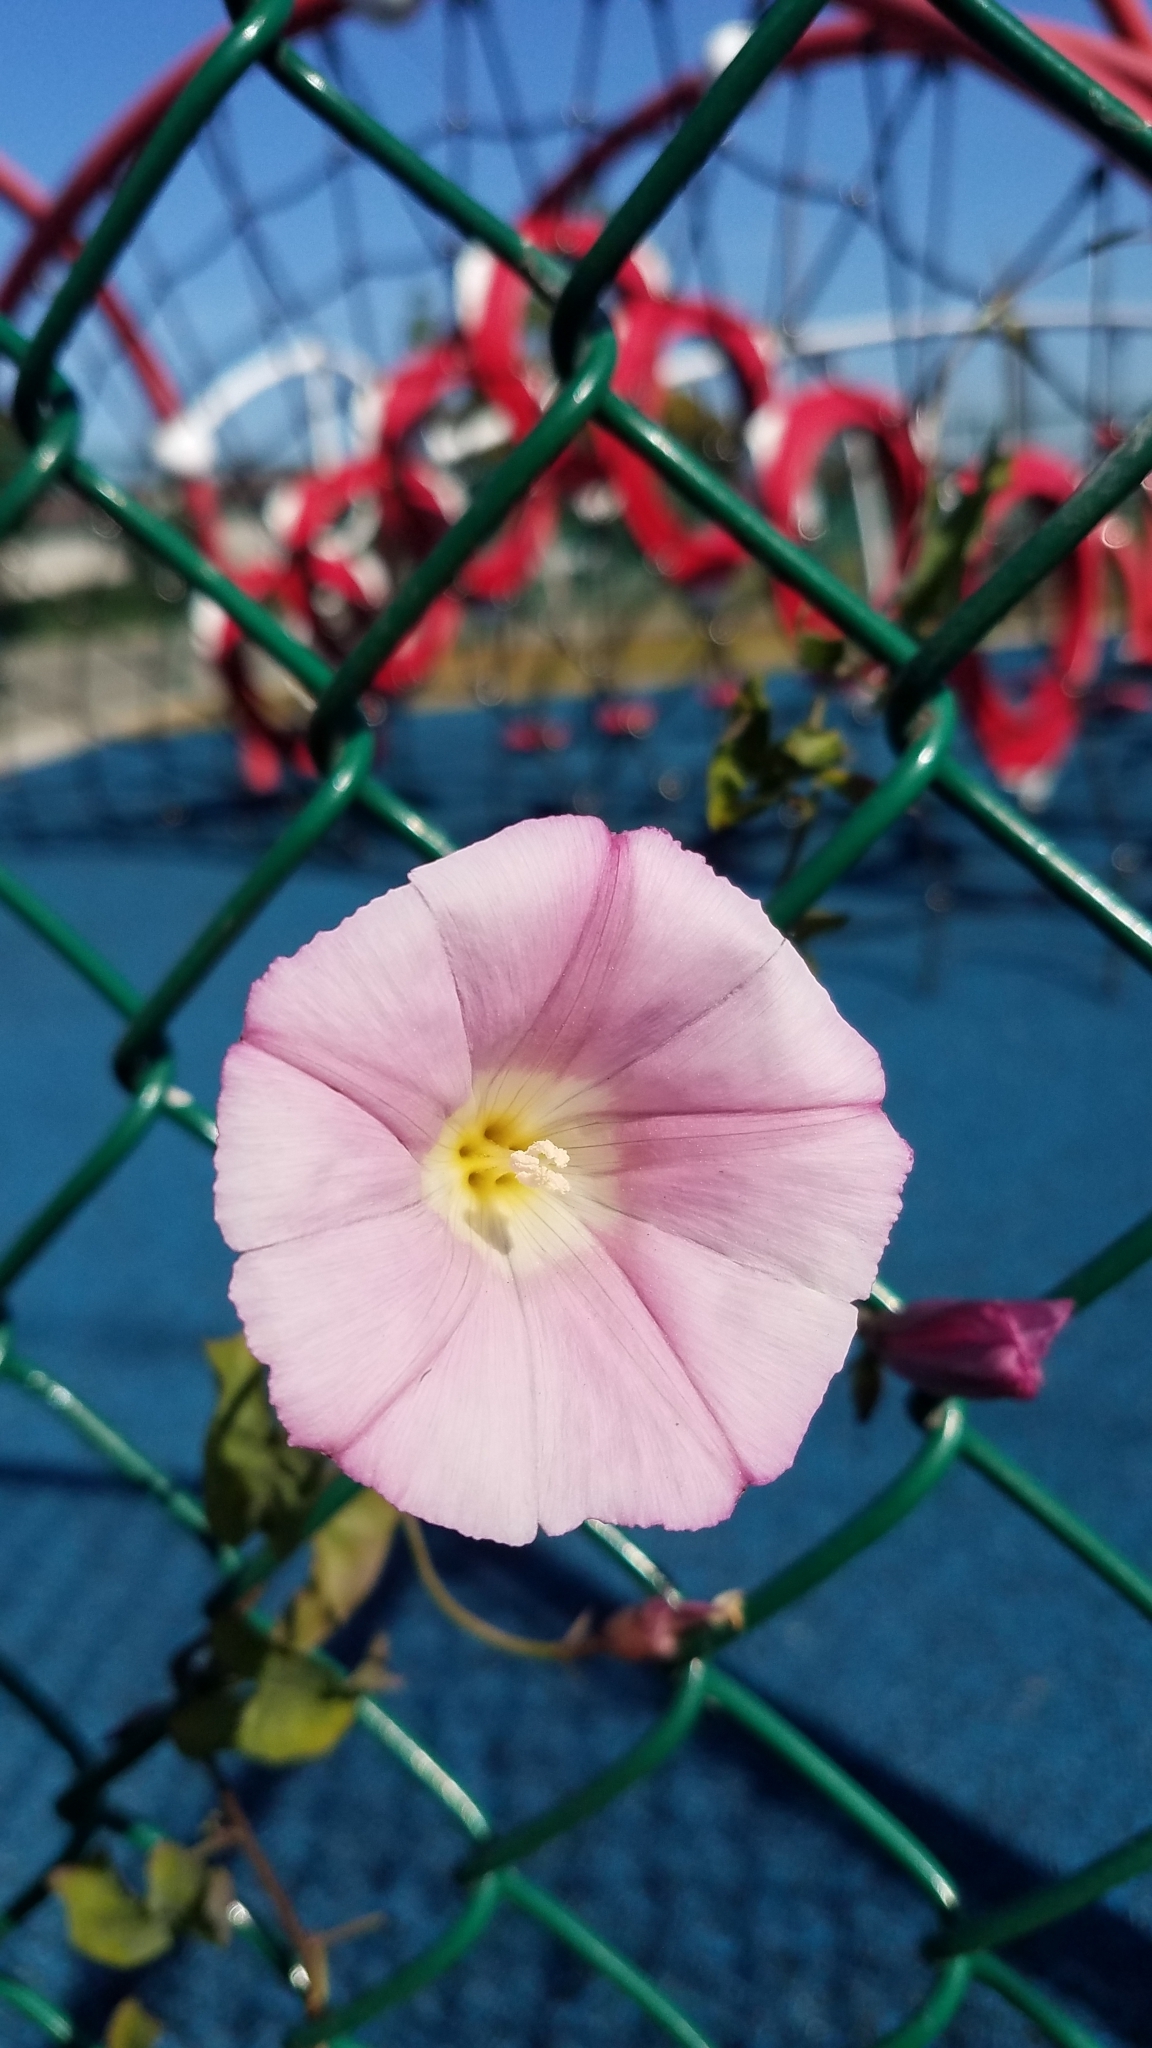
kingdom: Plantae
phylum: Tracheophyta
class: Magnoliopsida
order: Solanales
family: Convolvulaceae
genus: Calystegia
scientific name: Calystegia purpurata
